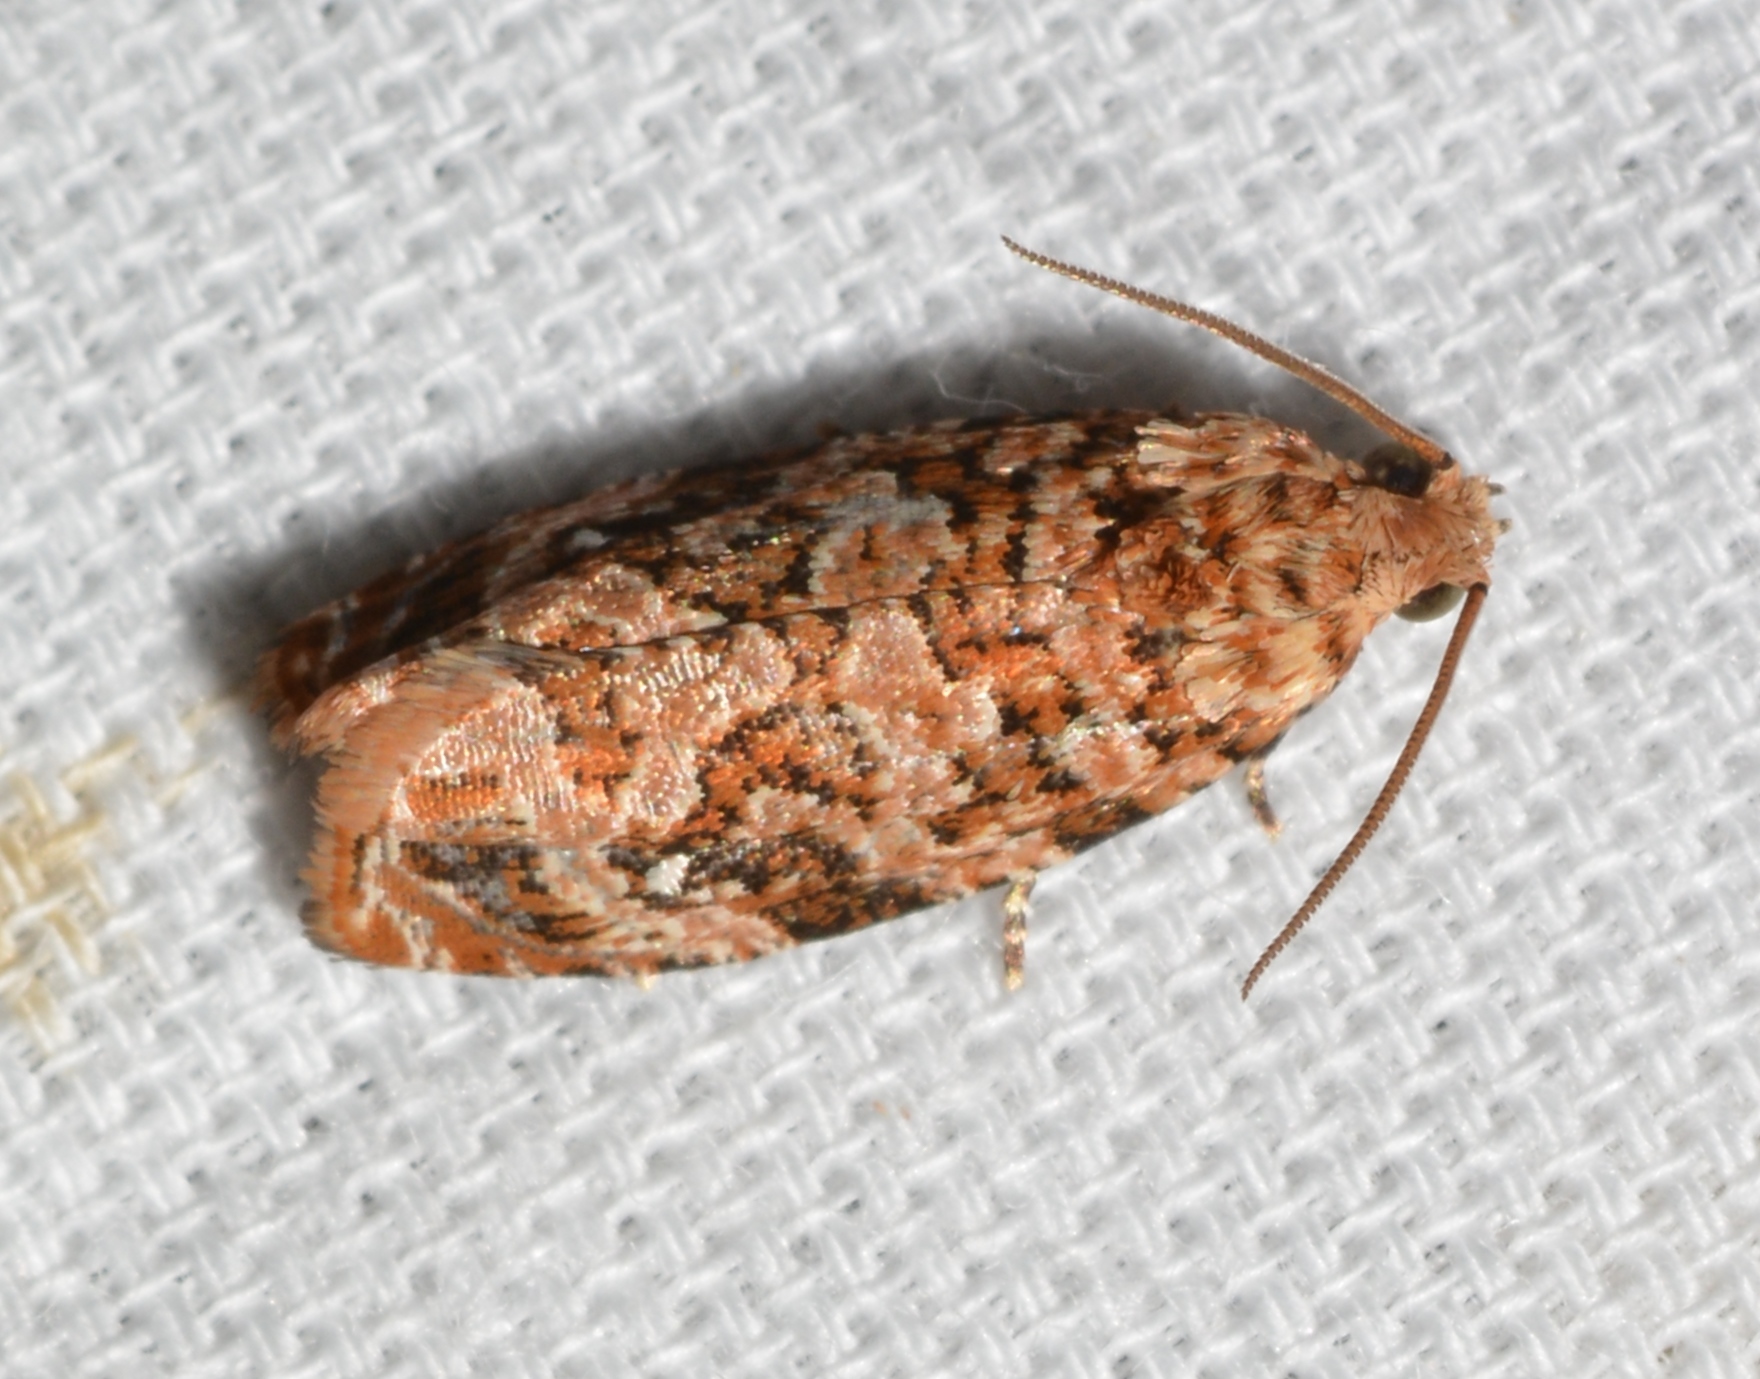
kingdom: Animalia
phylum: Arthropoda
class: Insecta
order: Lepidoptera
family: Tortricidae
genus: Phaecasiophora
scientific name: Phaecasiophora niveiguttana
